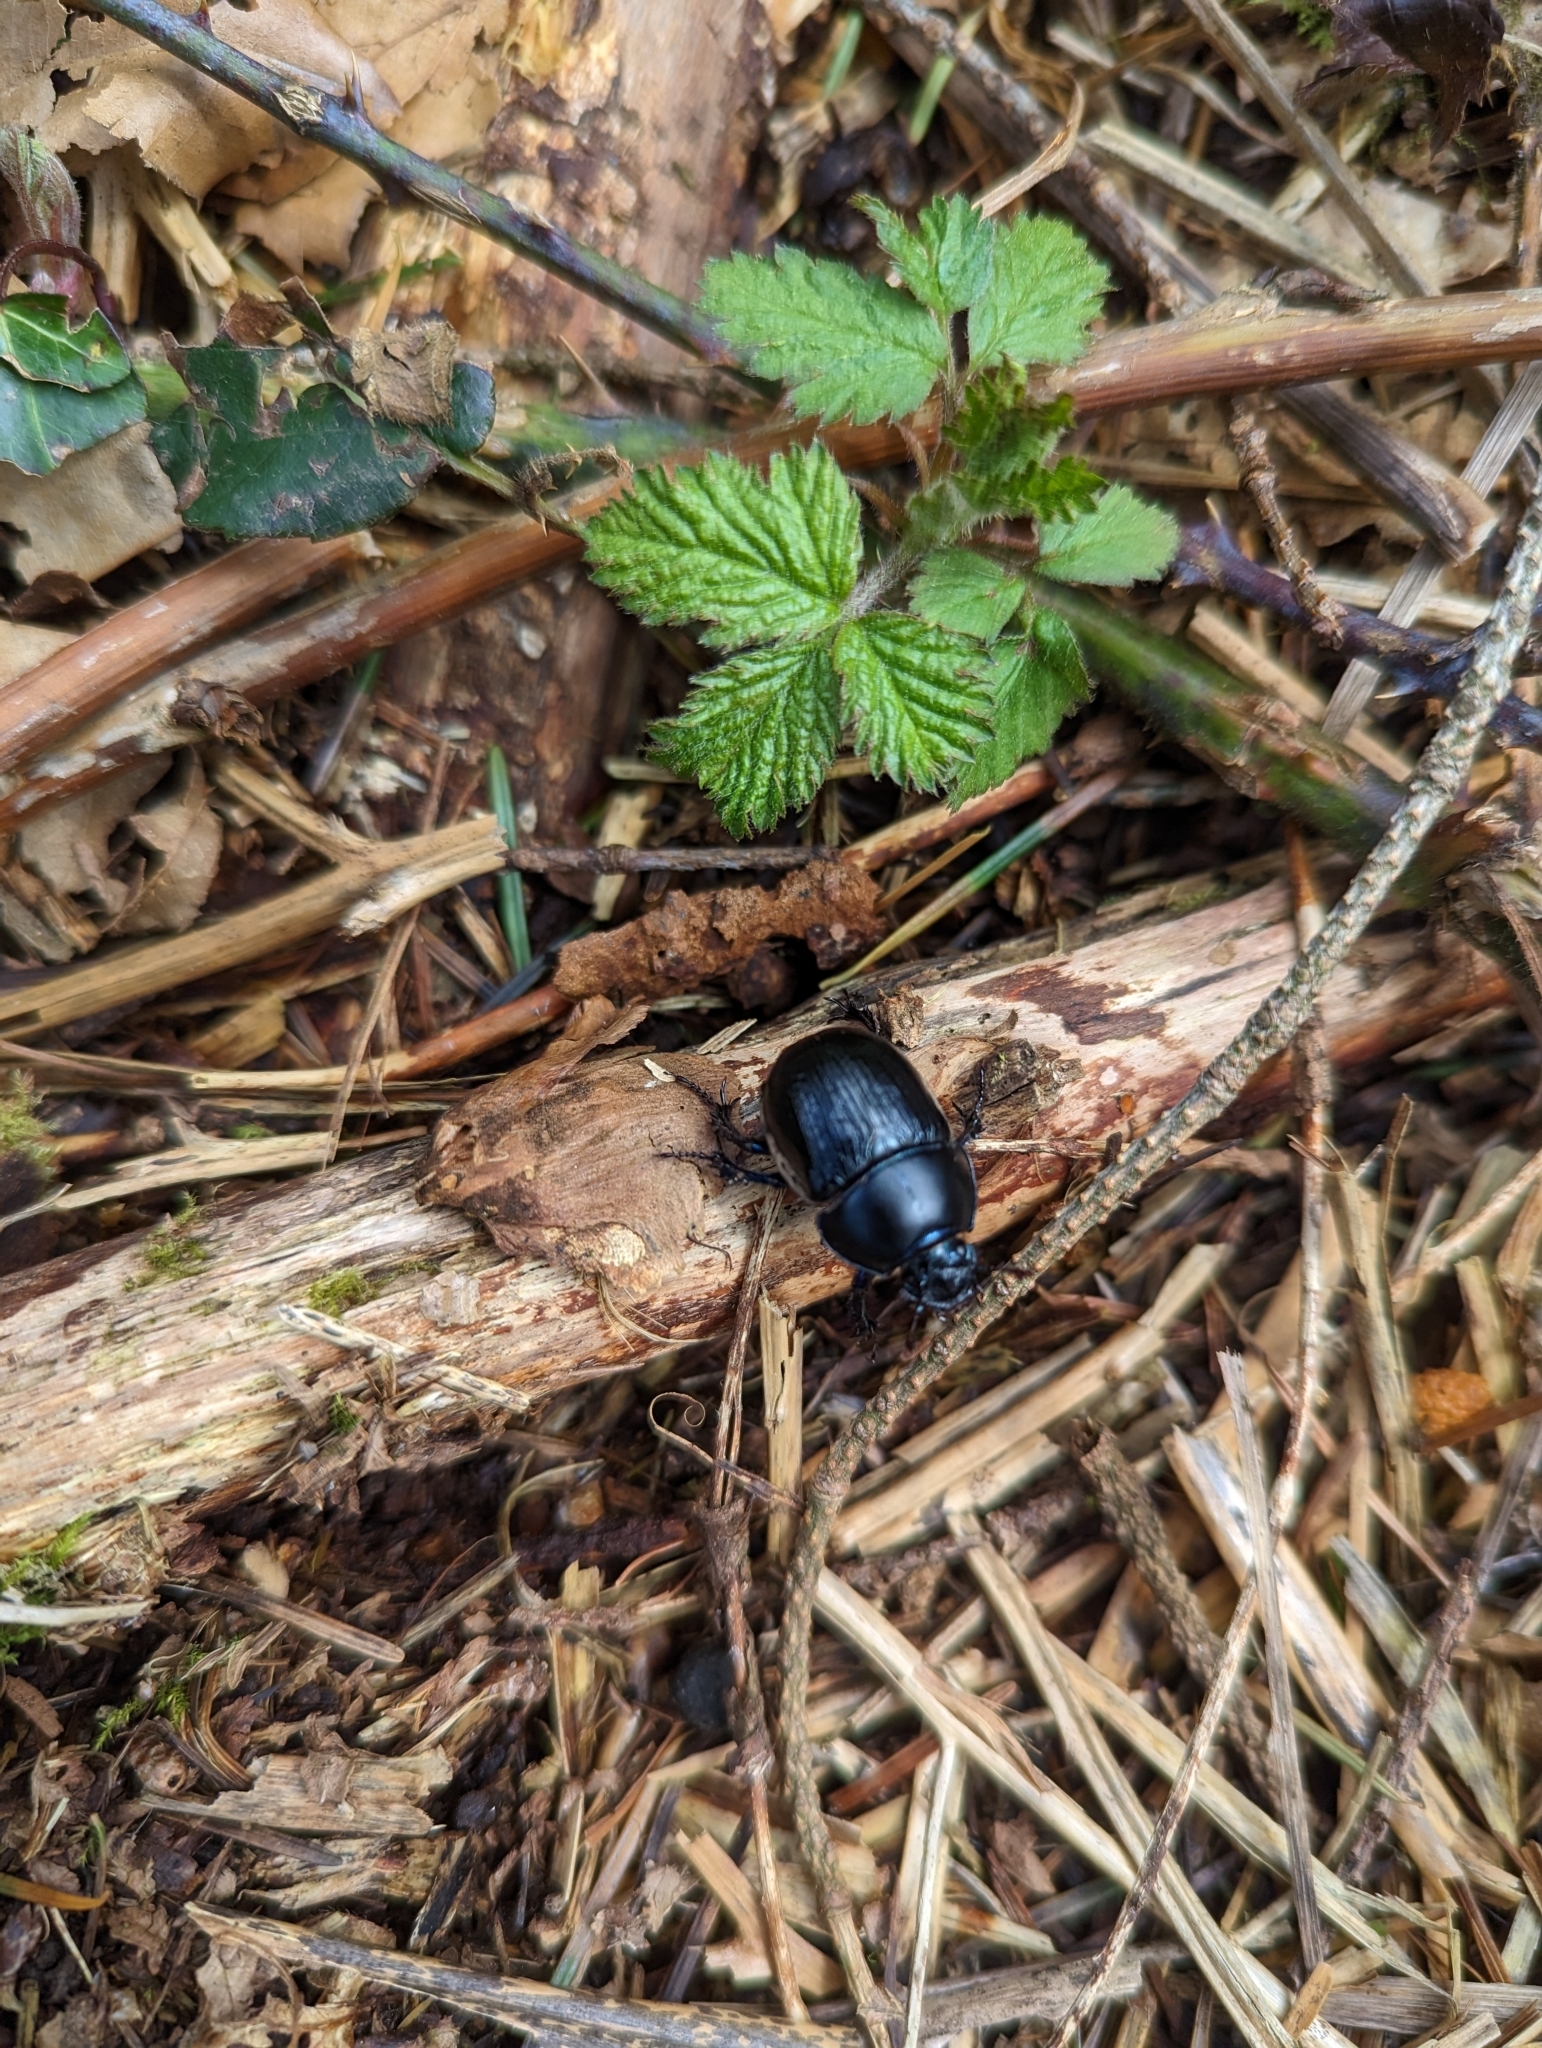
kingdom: Animalia
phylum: Arthropoda
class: Insecta
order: Coleoptera
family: Geotrupidae
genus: Anoplotrupes
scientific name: Anoplotrupes stercorosus
